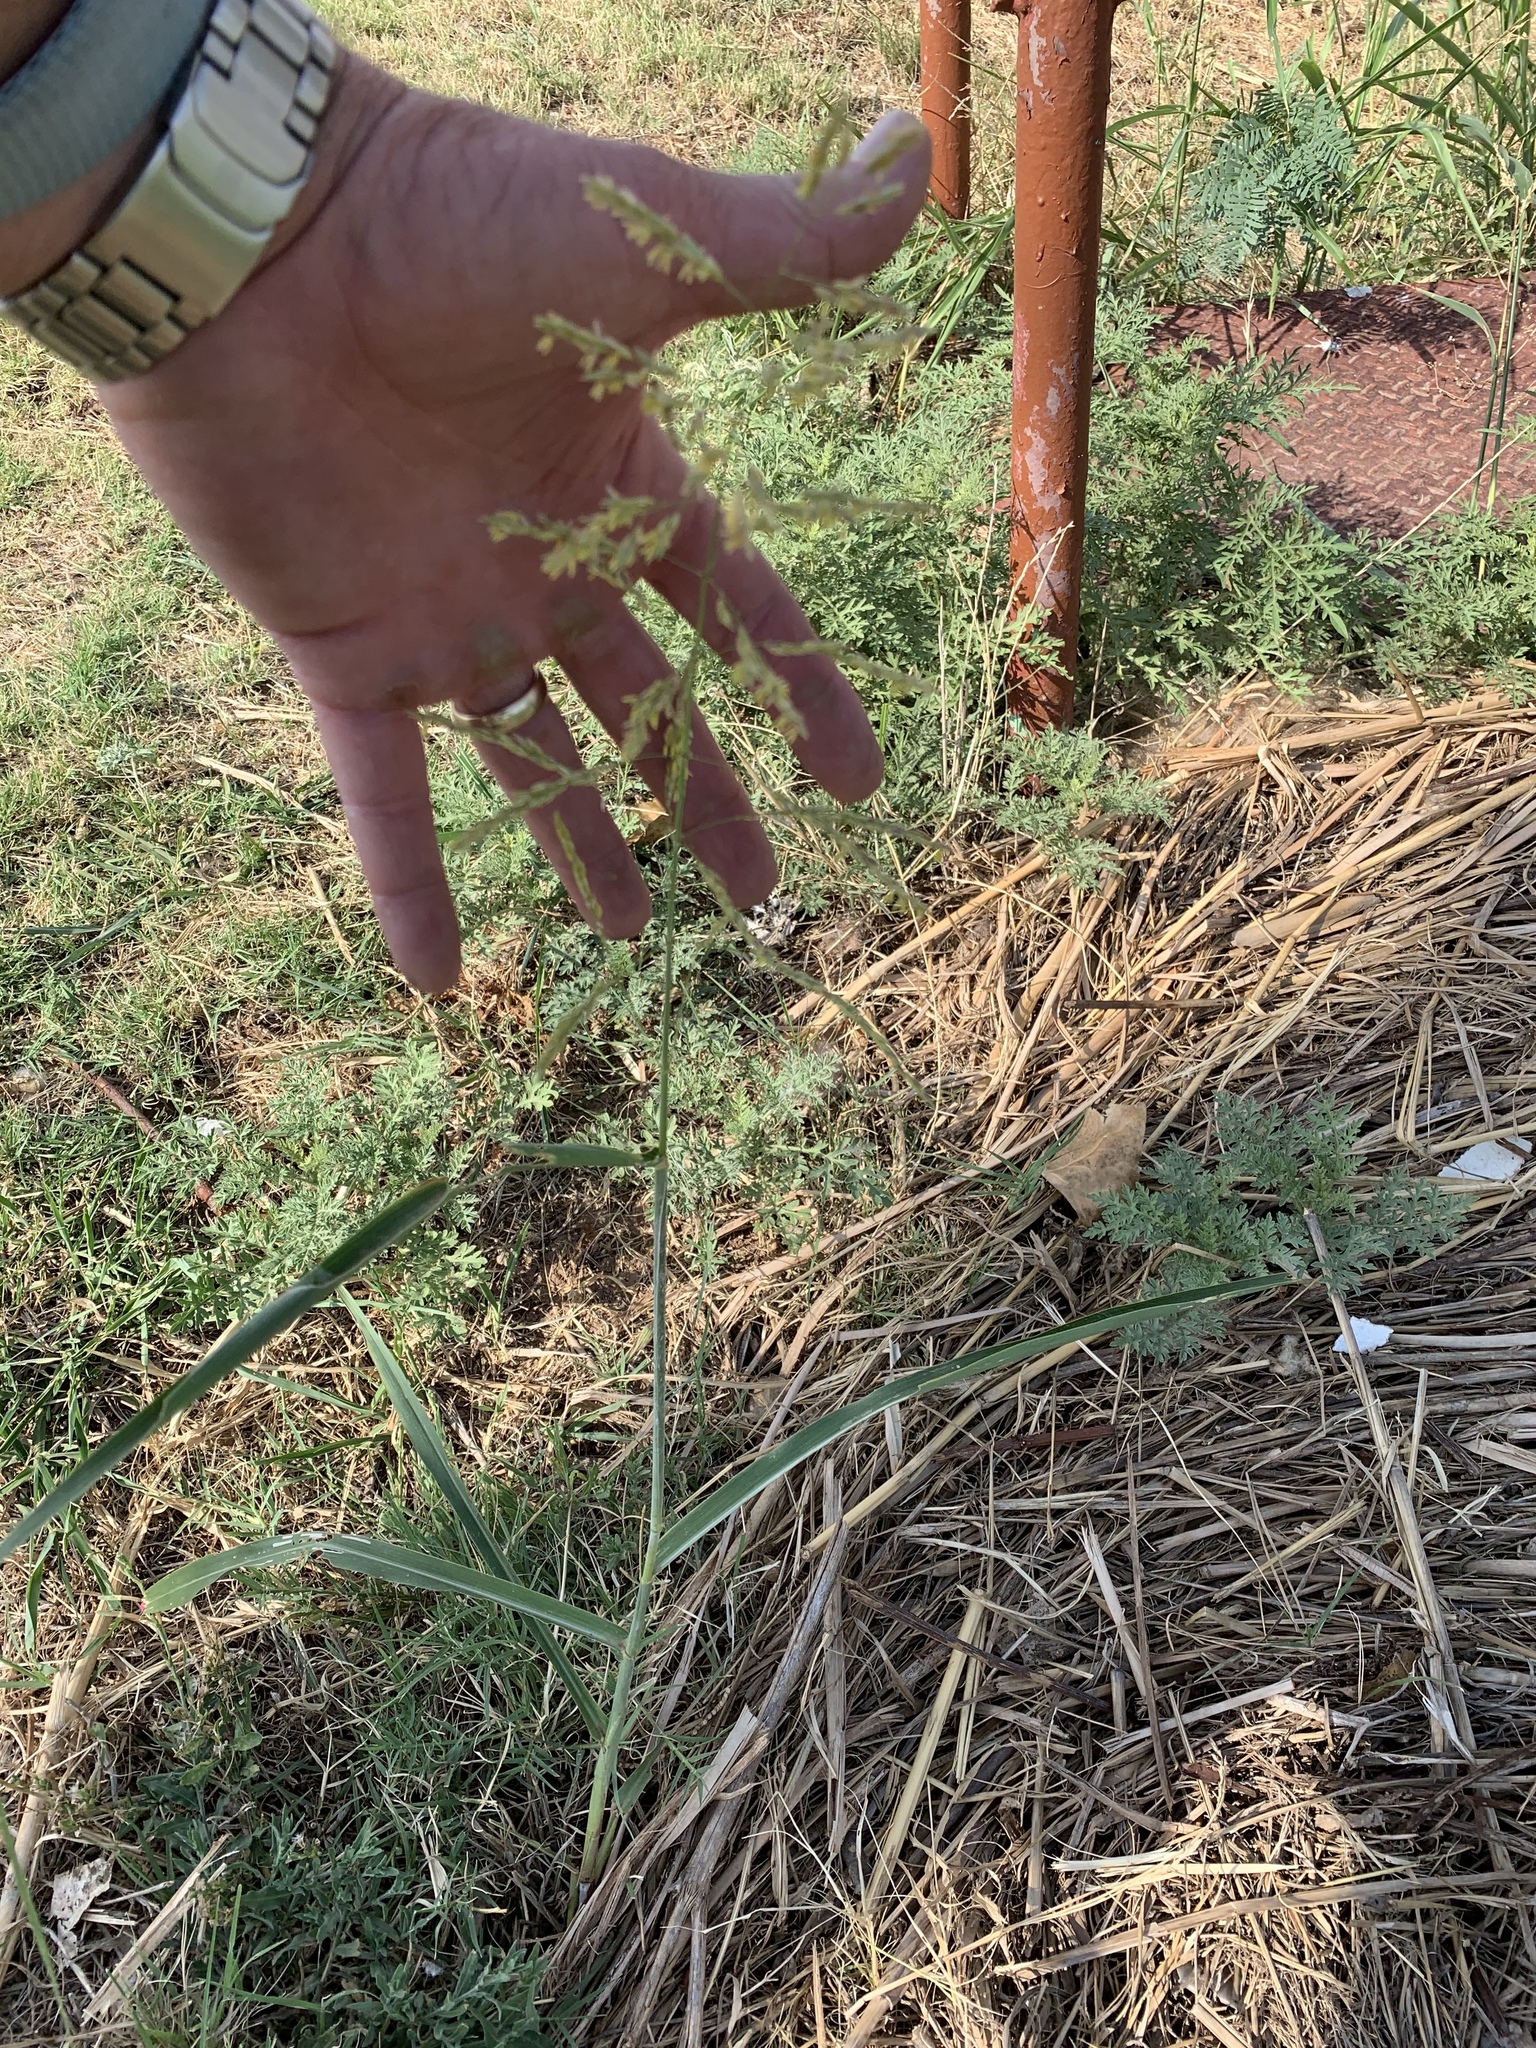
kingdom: Plantae
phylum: Tracheophyta
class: Liliopsida
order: Poales
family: Poaceae
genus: Sorghum
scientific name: Sorghum halepense
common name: Johnson-grass
